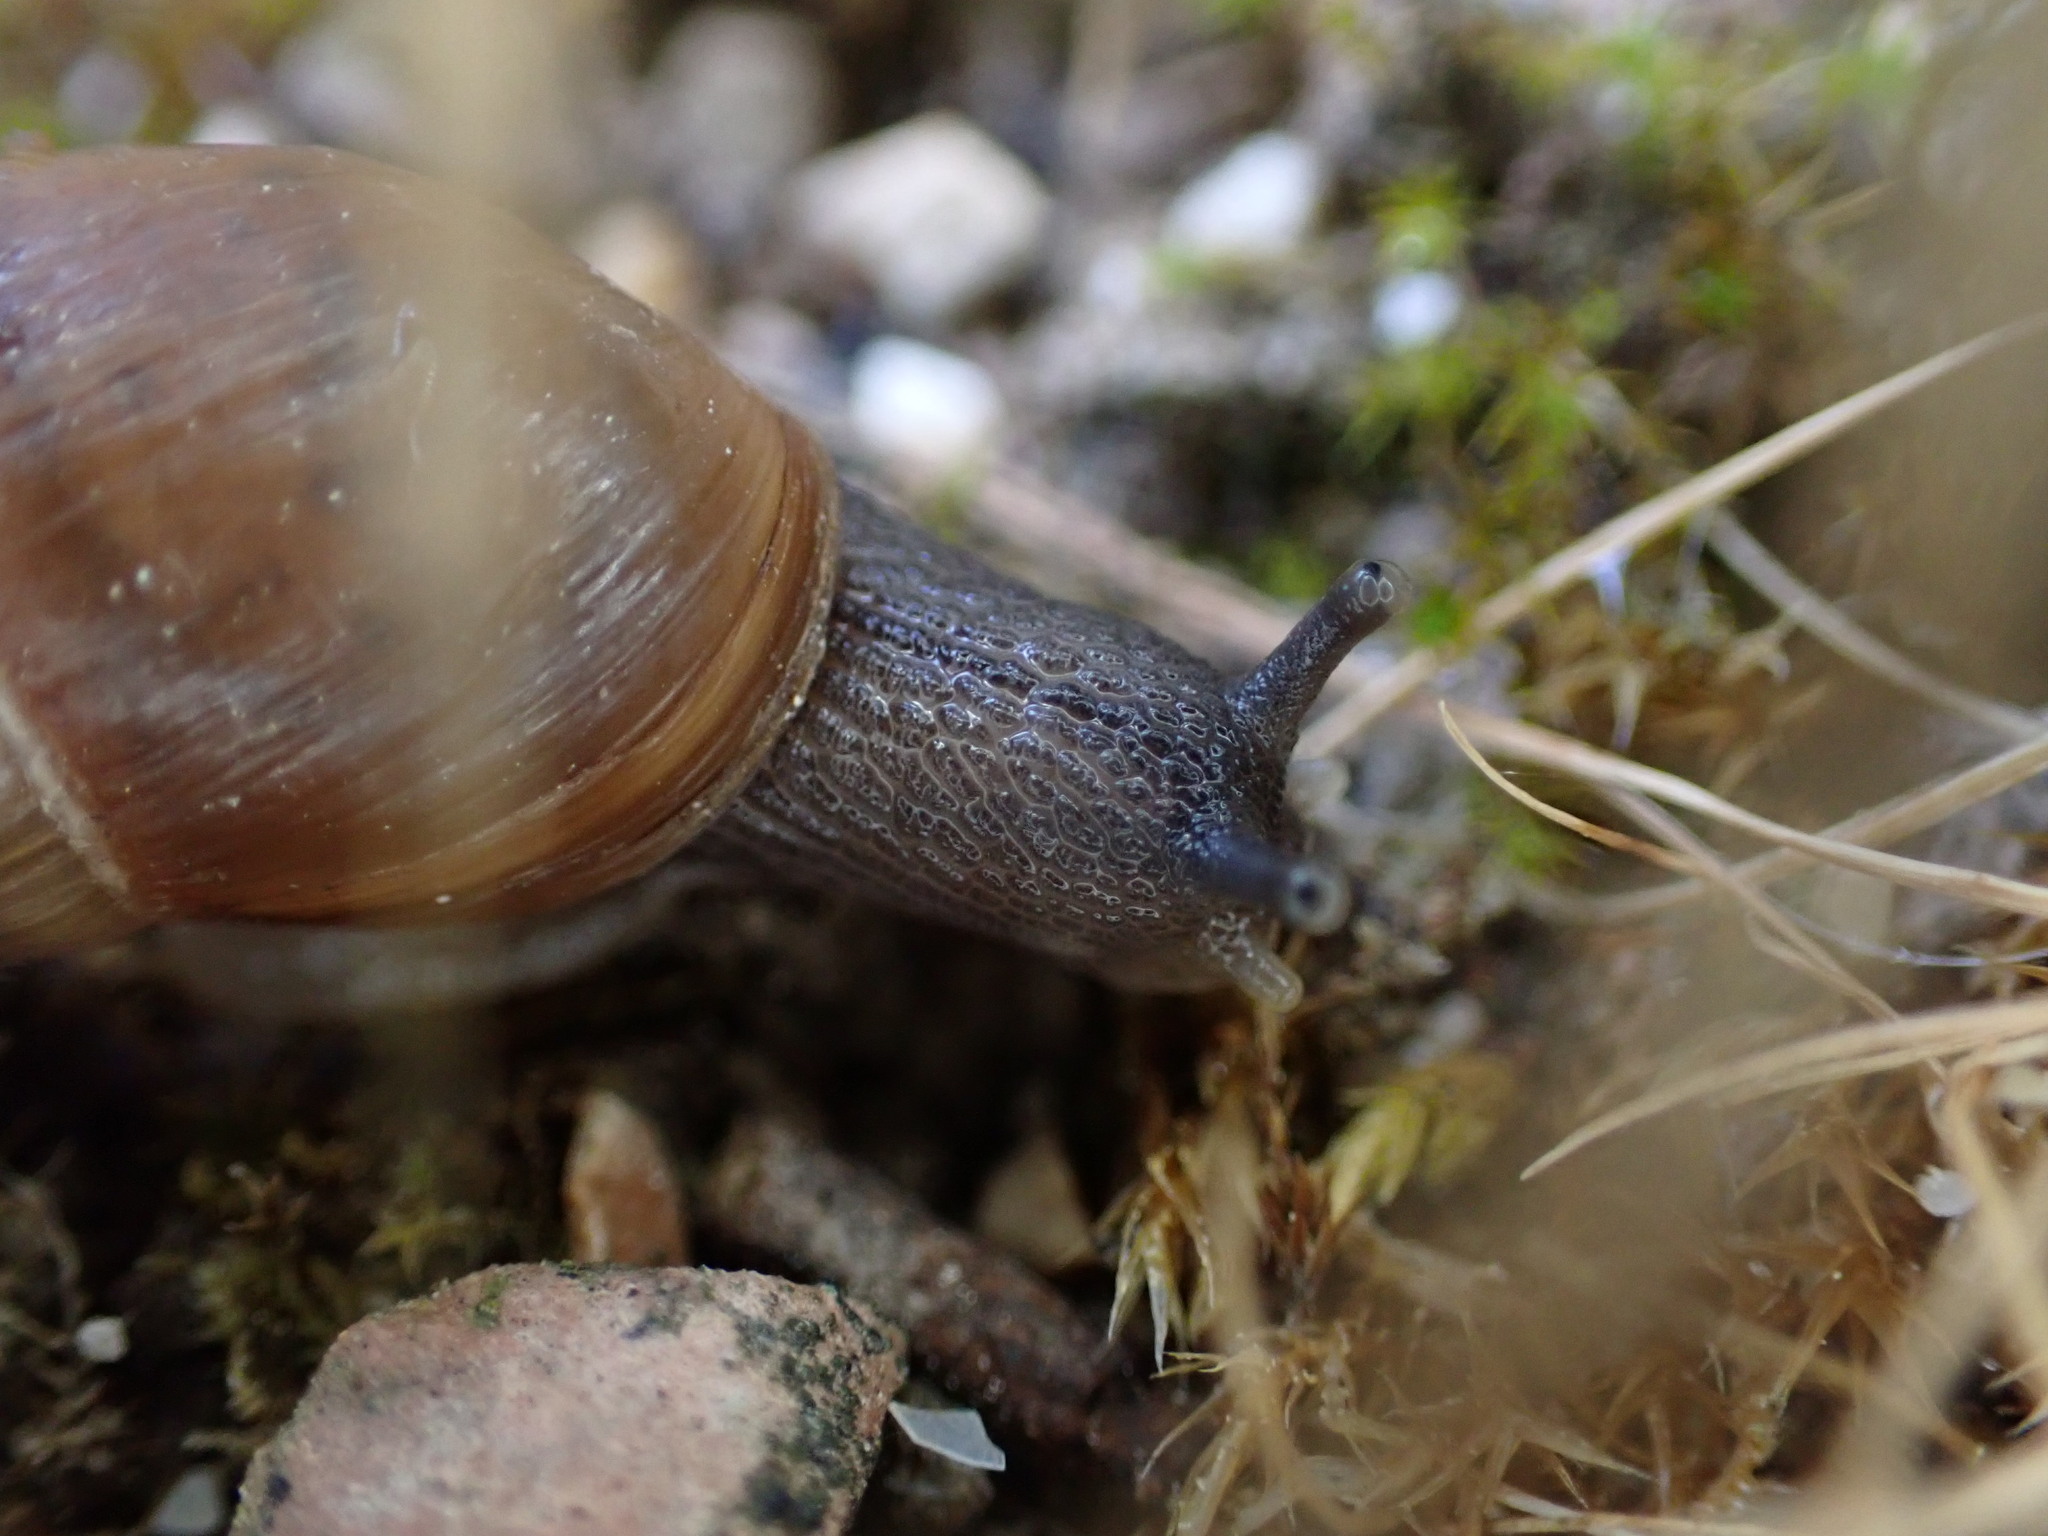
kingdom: Animalia
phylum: Mollusca
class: Gastropoda
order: Stylommatophora
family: Achatinidae
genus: Rumina
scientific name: Rumina decollata
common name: Decollate snail
